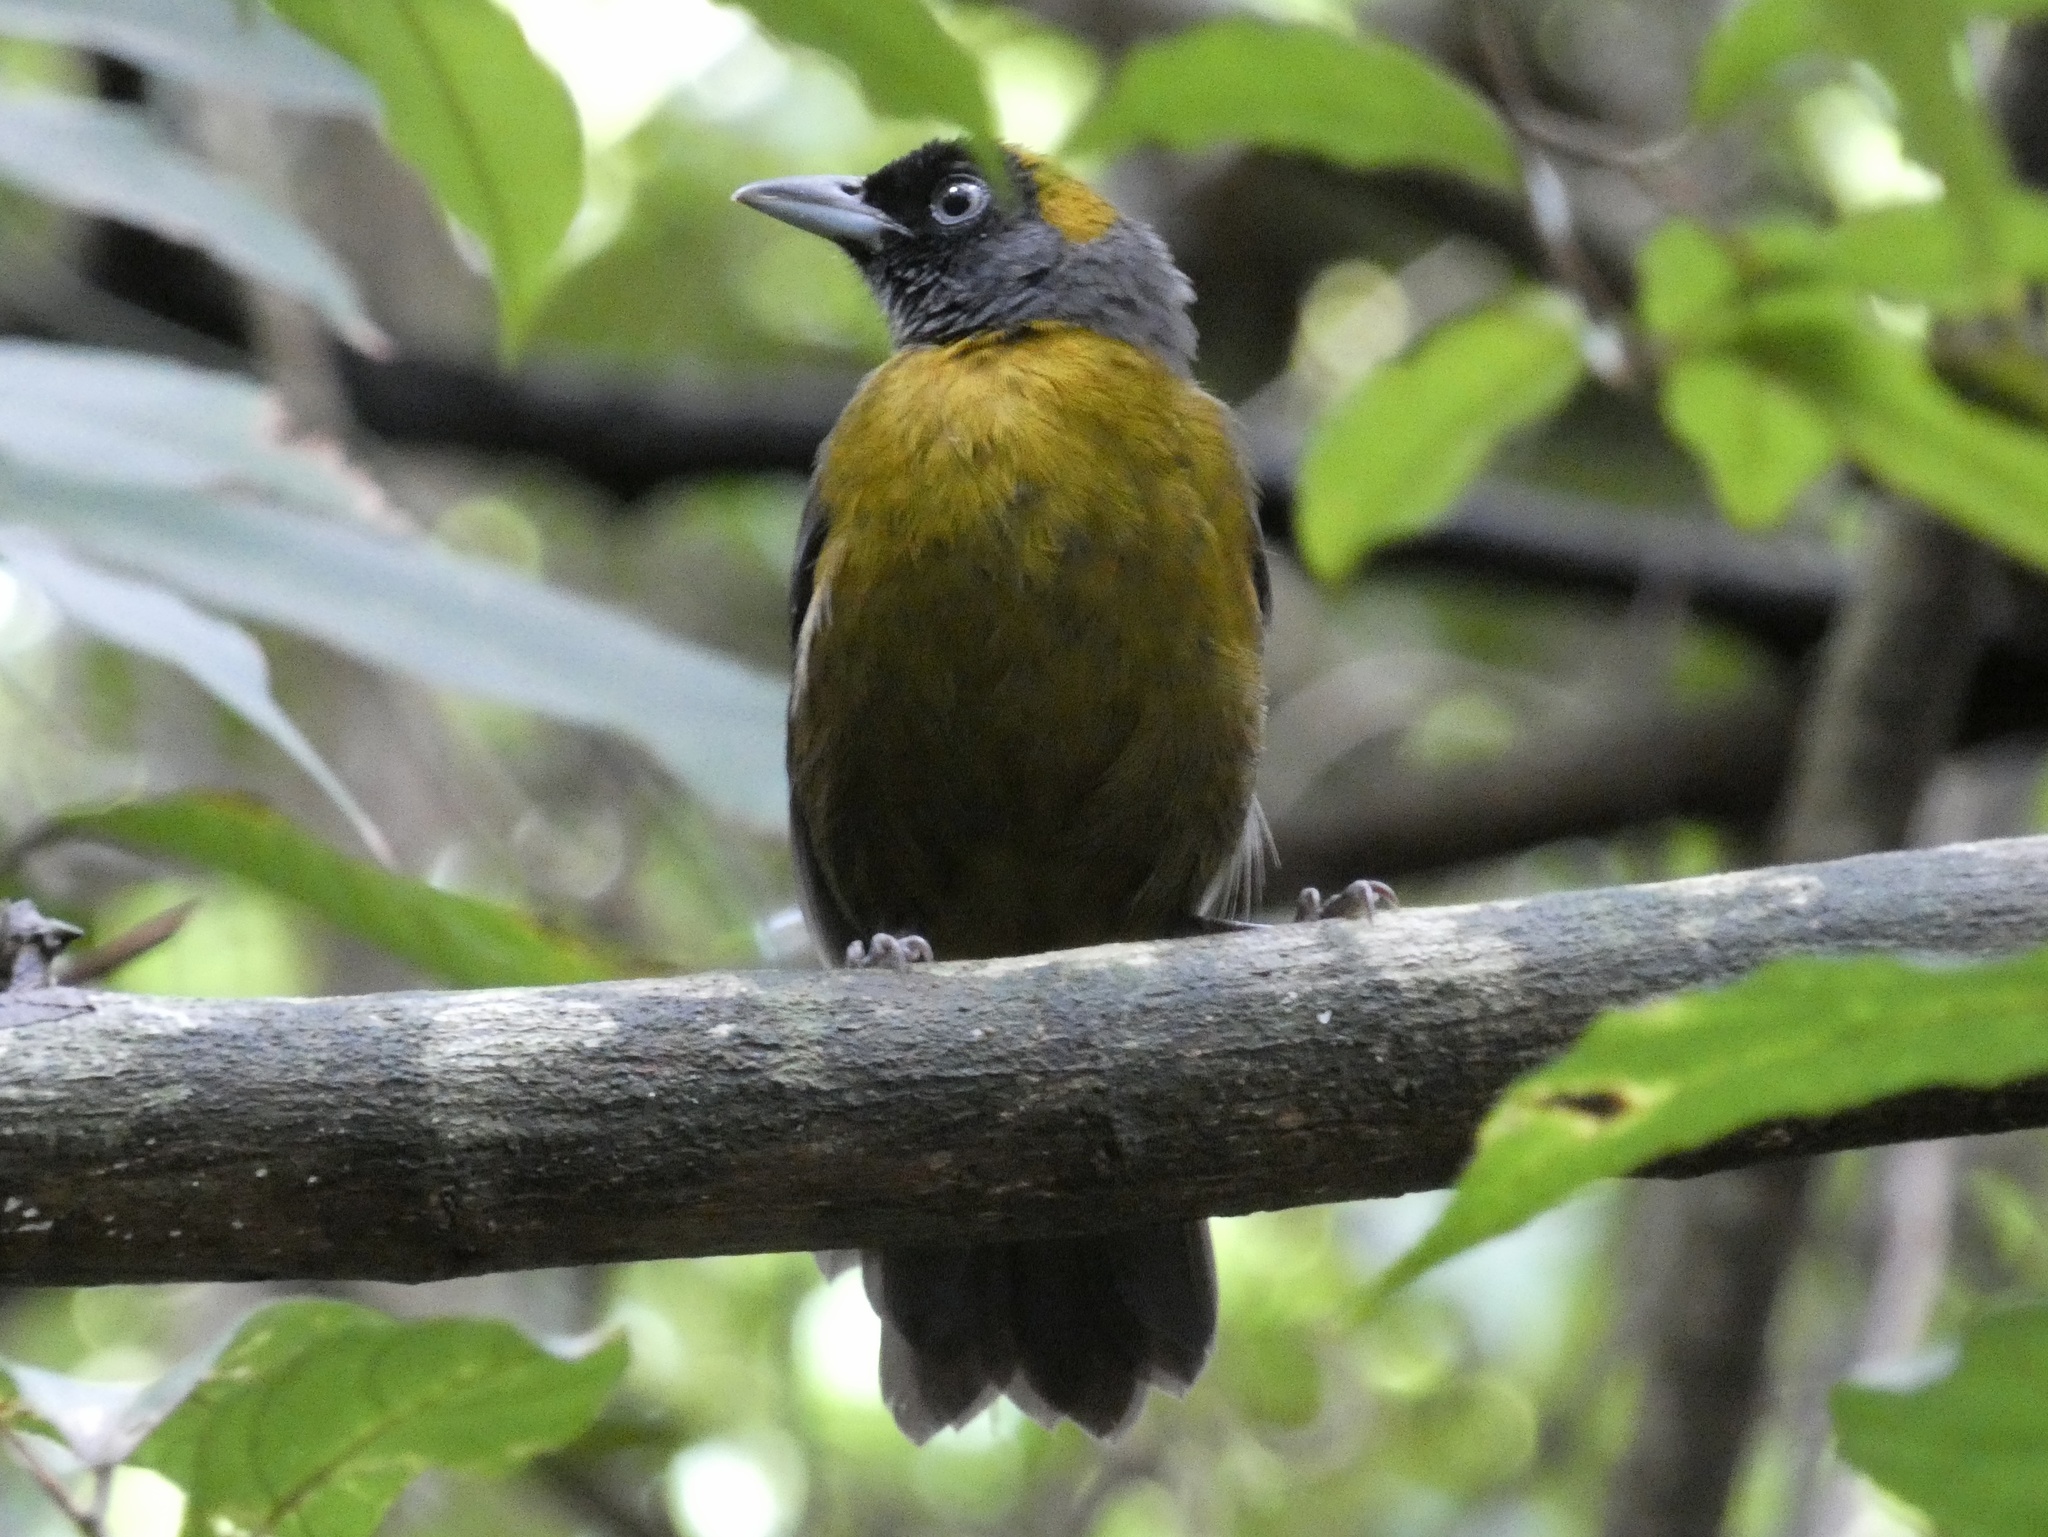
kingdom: Animalia
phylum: Chordata
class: Aves
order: Passeriformes
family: Mitrospingidae
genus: Mitrospingus
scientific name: Mitrospingus cassinii
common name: Dusky-faced tanager
